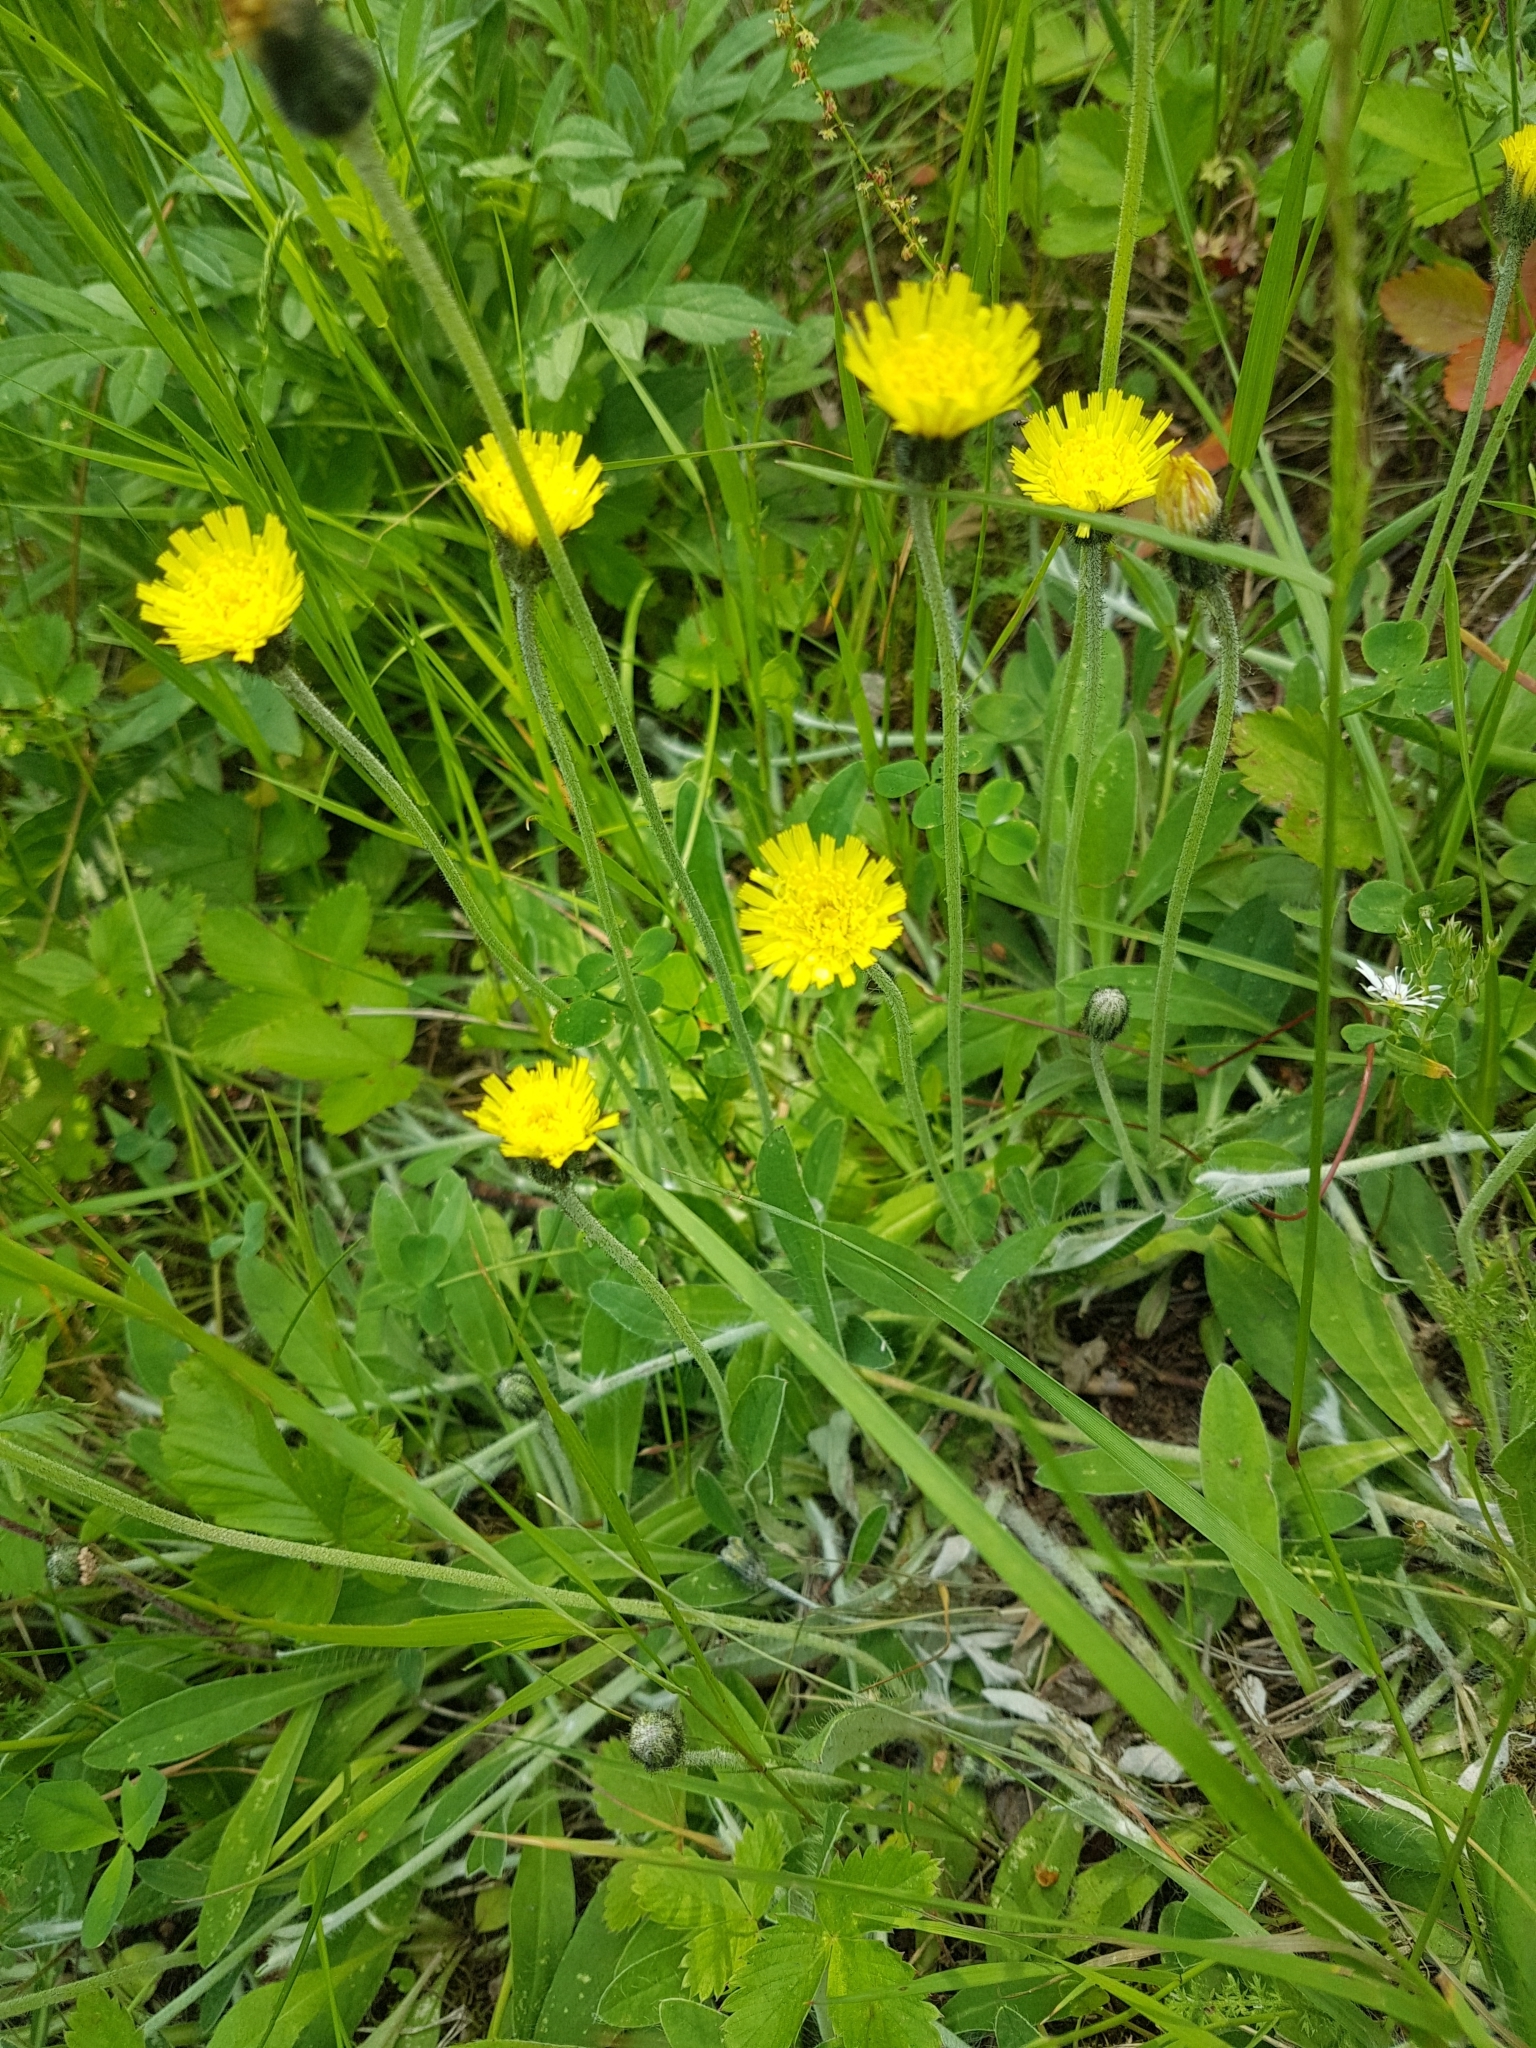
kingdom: Plantae
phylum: Tracheophyta
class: Magnoliopsida
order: Asterales
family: Asteraceae
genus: Pilosella
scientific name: Pilosella officinarum
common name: Mouse-ear hawkweed
